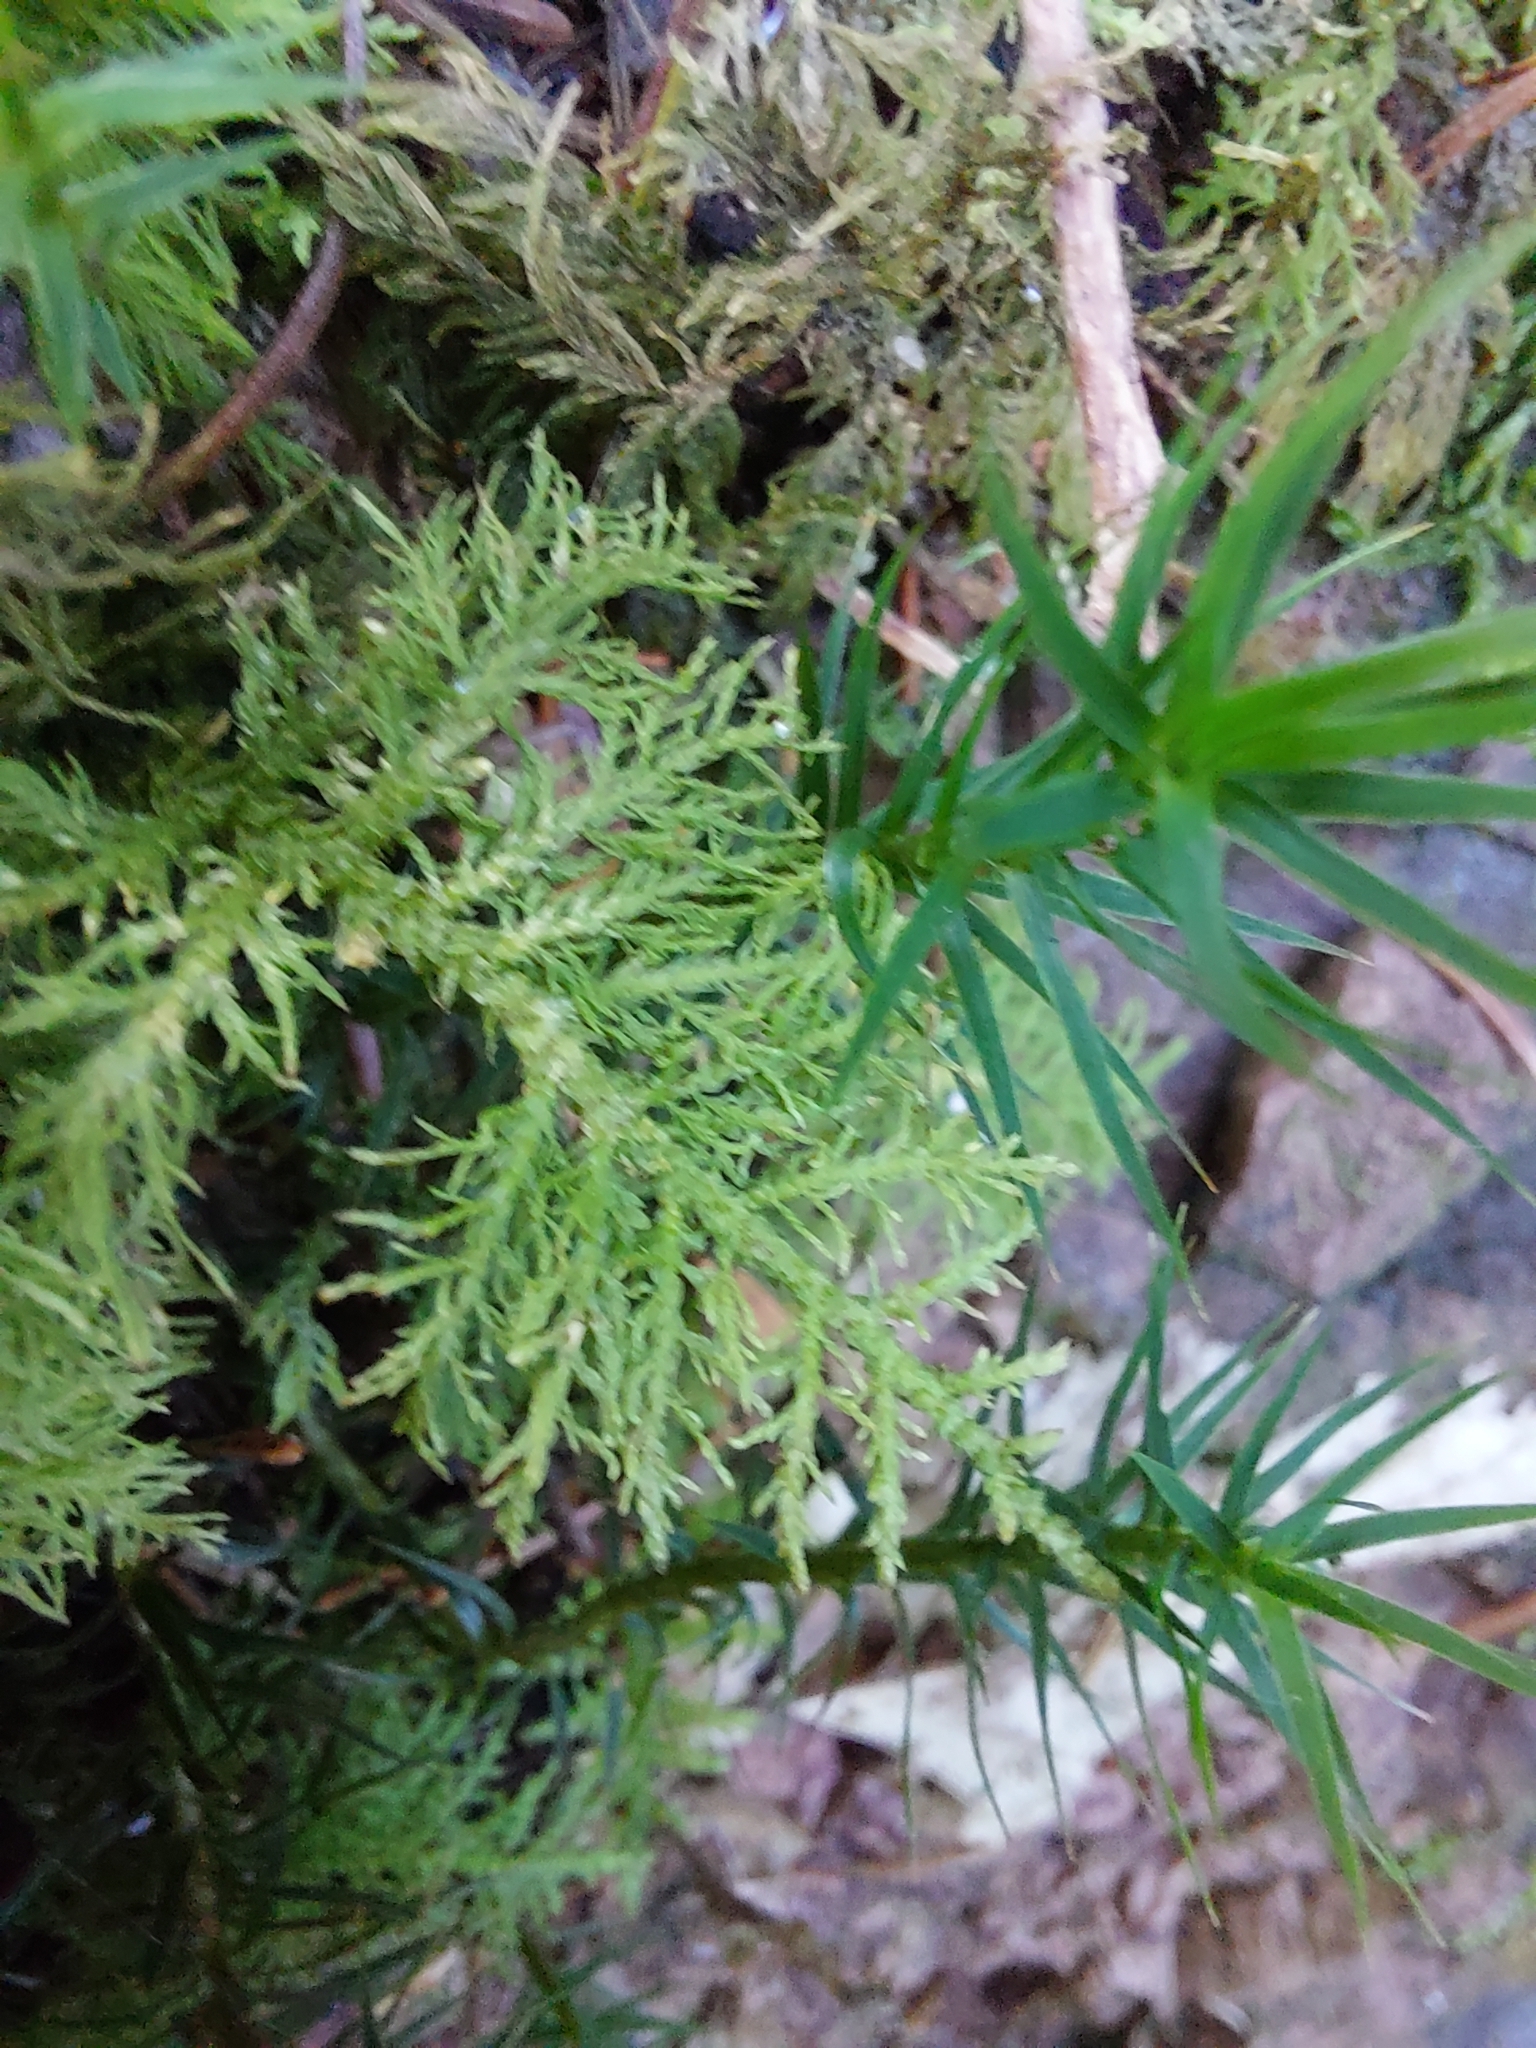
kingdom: Plantae
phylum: Bryophyta
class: Bryopsida
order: Hypnales
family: Thuidiaceae
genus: Thuidium
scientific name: Thuidium tamariscinum
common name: Common tamarisk-moss
